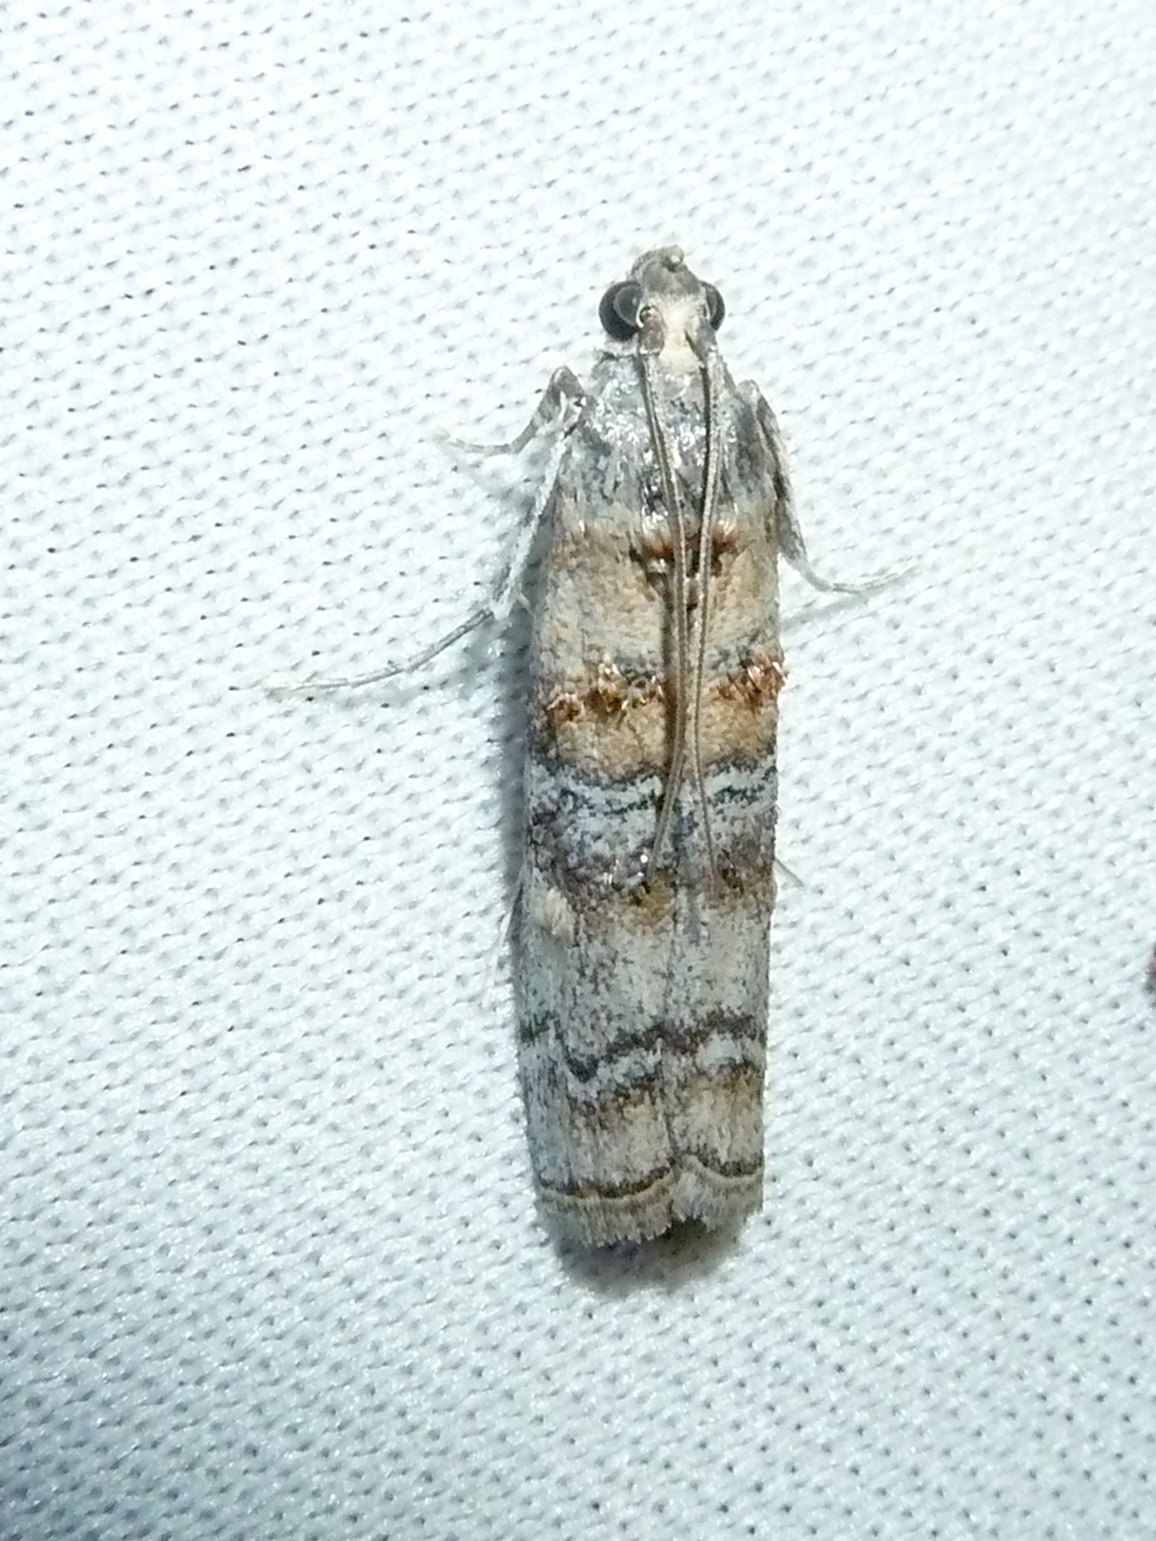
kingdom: Animalia
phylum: Arthropoda
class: Insecta
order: Lepidoptera
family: Pyralidae
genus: Dioryctria
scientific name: Dioryctria fordi
